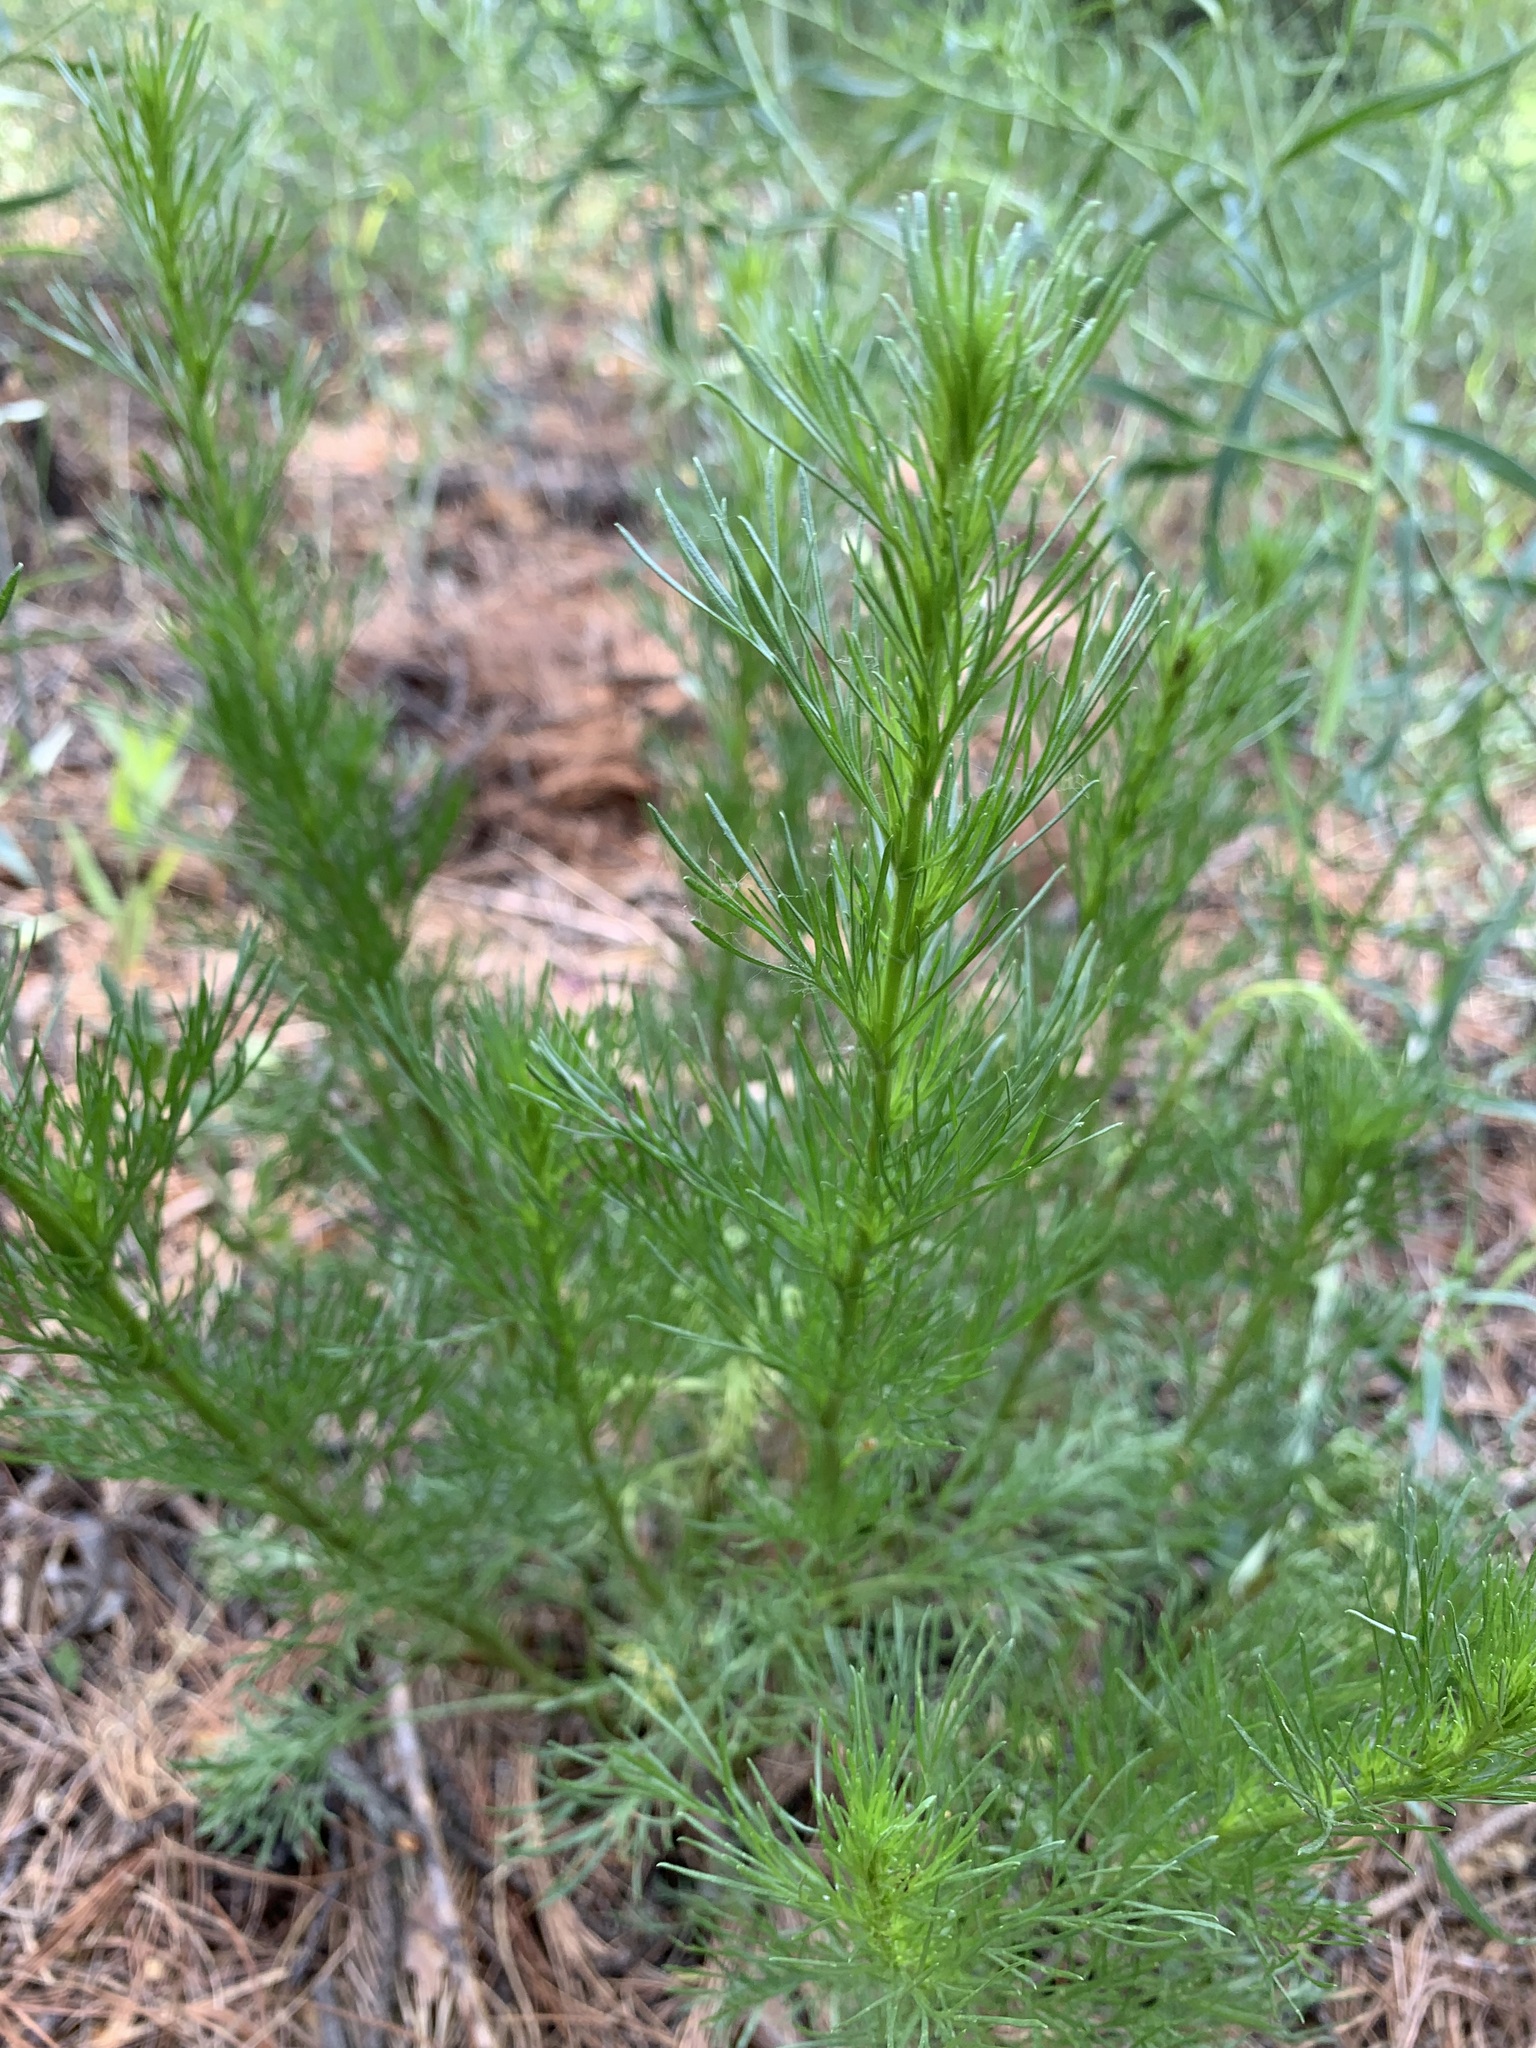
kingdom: Plantae
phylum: Tracheophyta
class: Magnoliopsida
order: Asterales
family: Asteraceae
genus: Artemisia
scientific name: Artemisia campestris
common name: Field wormwood
